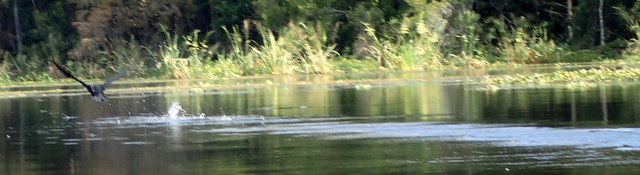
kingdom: Animalia
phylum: Chordata
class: Aves
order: Suliformes
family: Phalacrocoracidae
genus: Phalacrocorax
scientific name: Phalacrocorax auritus
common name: Double-crested cormorant
